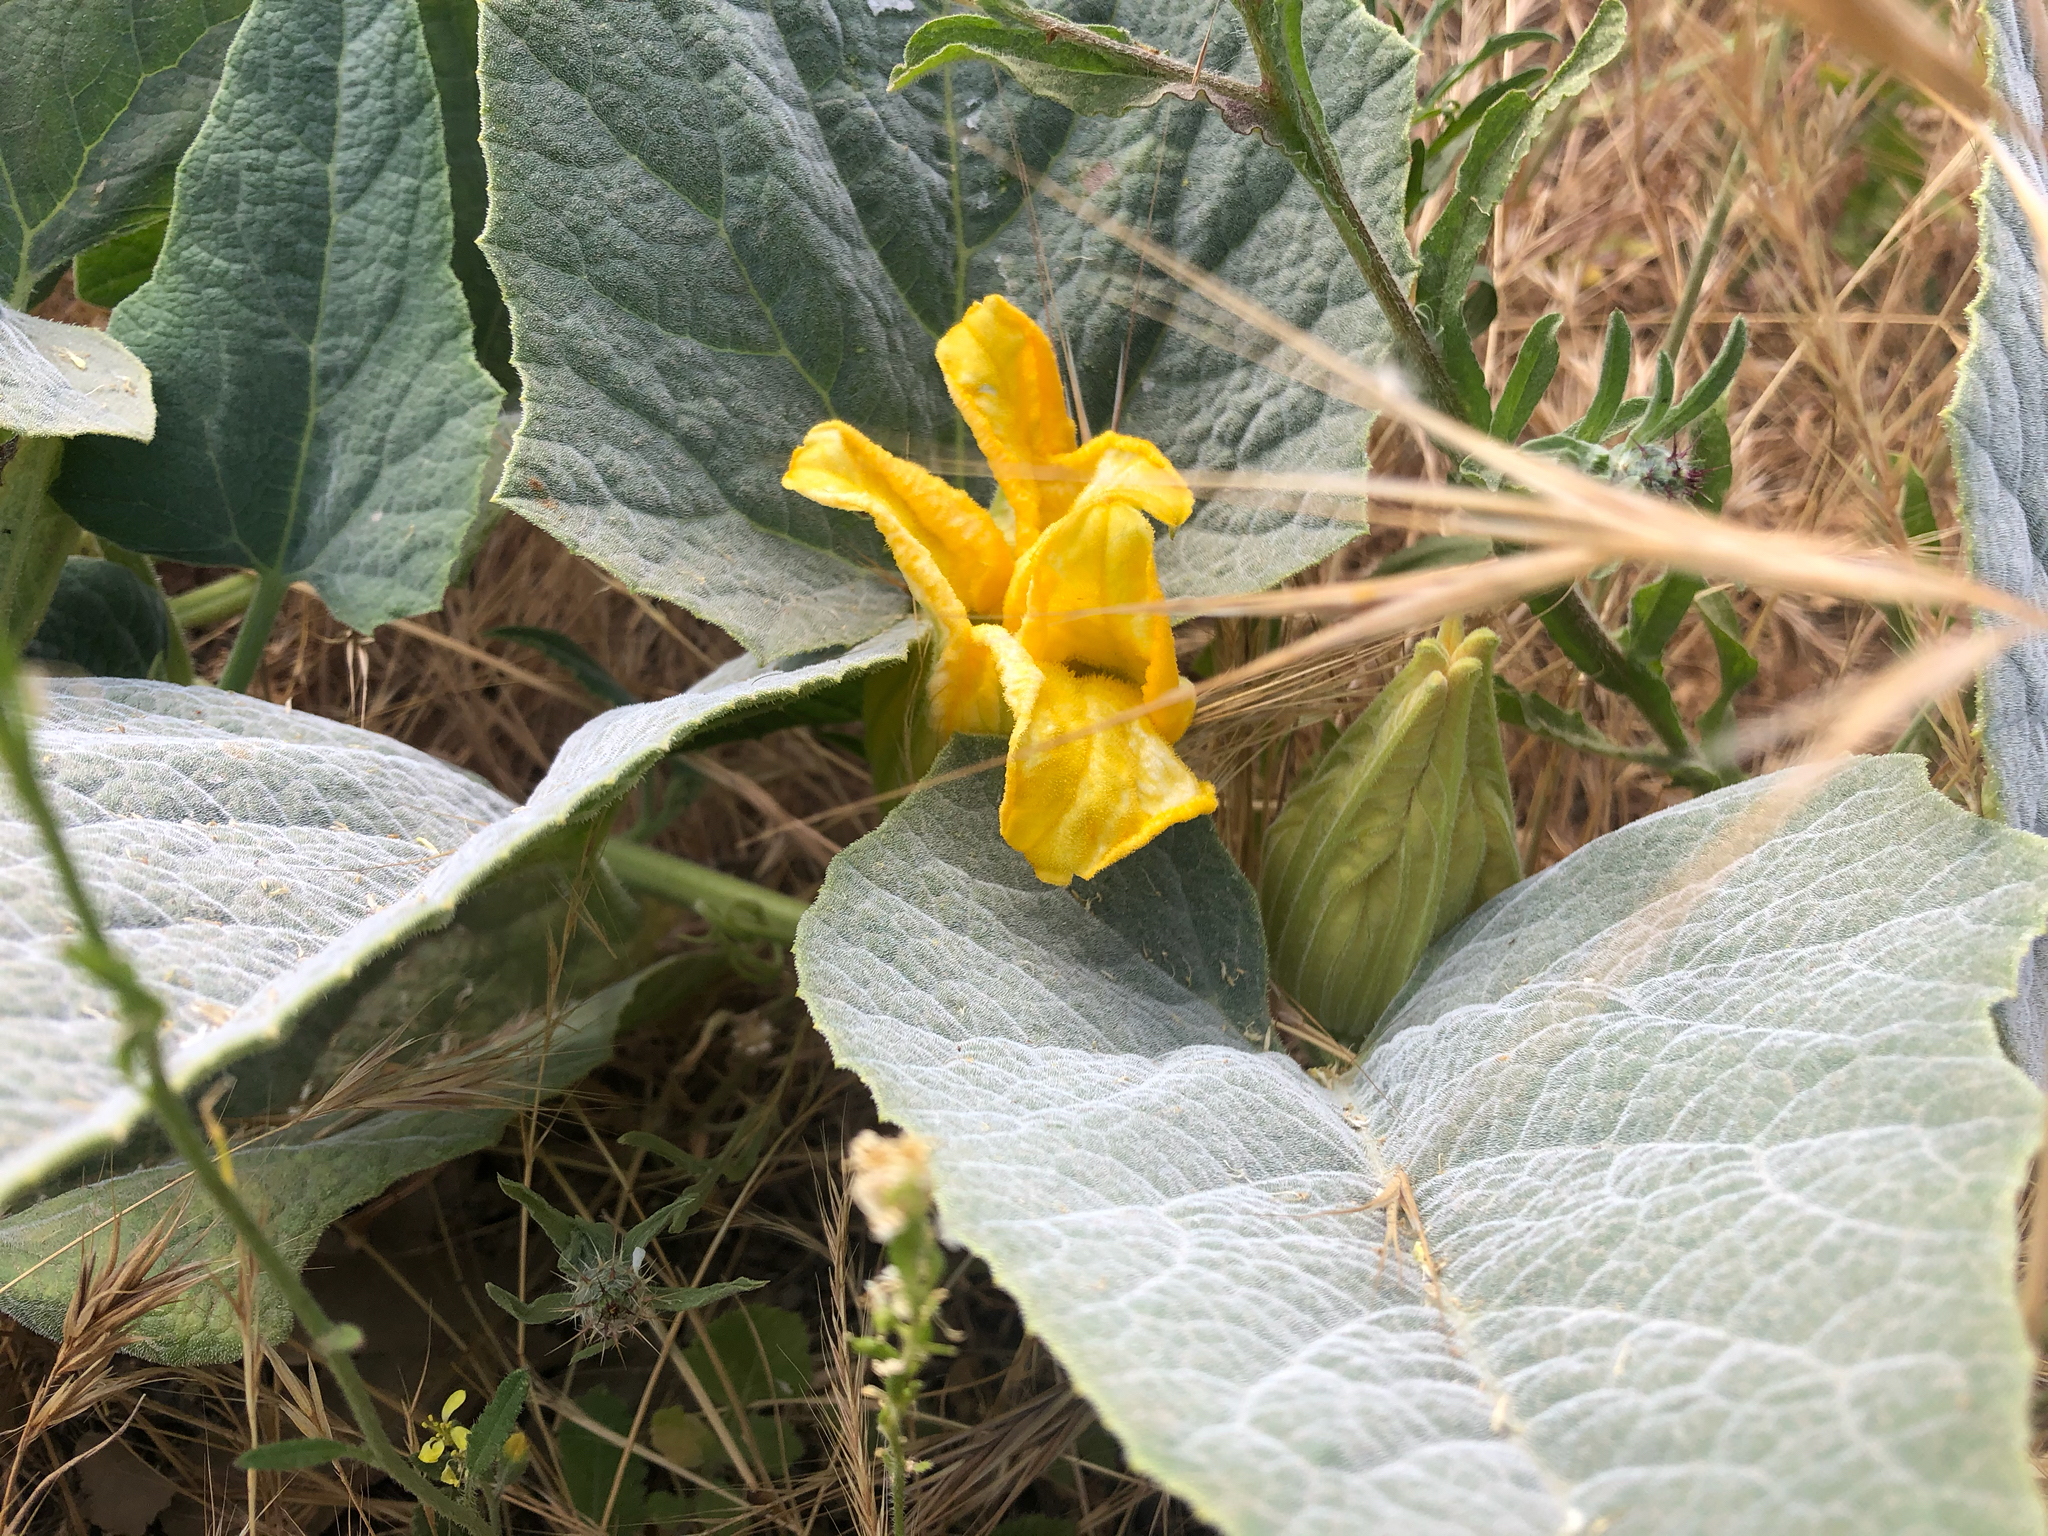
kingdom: Plantae
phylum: Tracheophyta
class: Magnoliopsida
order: Cucurbitales
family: Cucurbitaceae
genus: Cucurbita
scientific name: Cucurbita foetidissima
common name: Buffalo gourd
